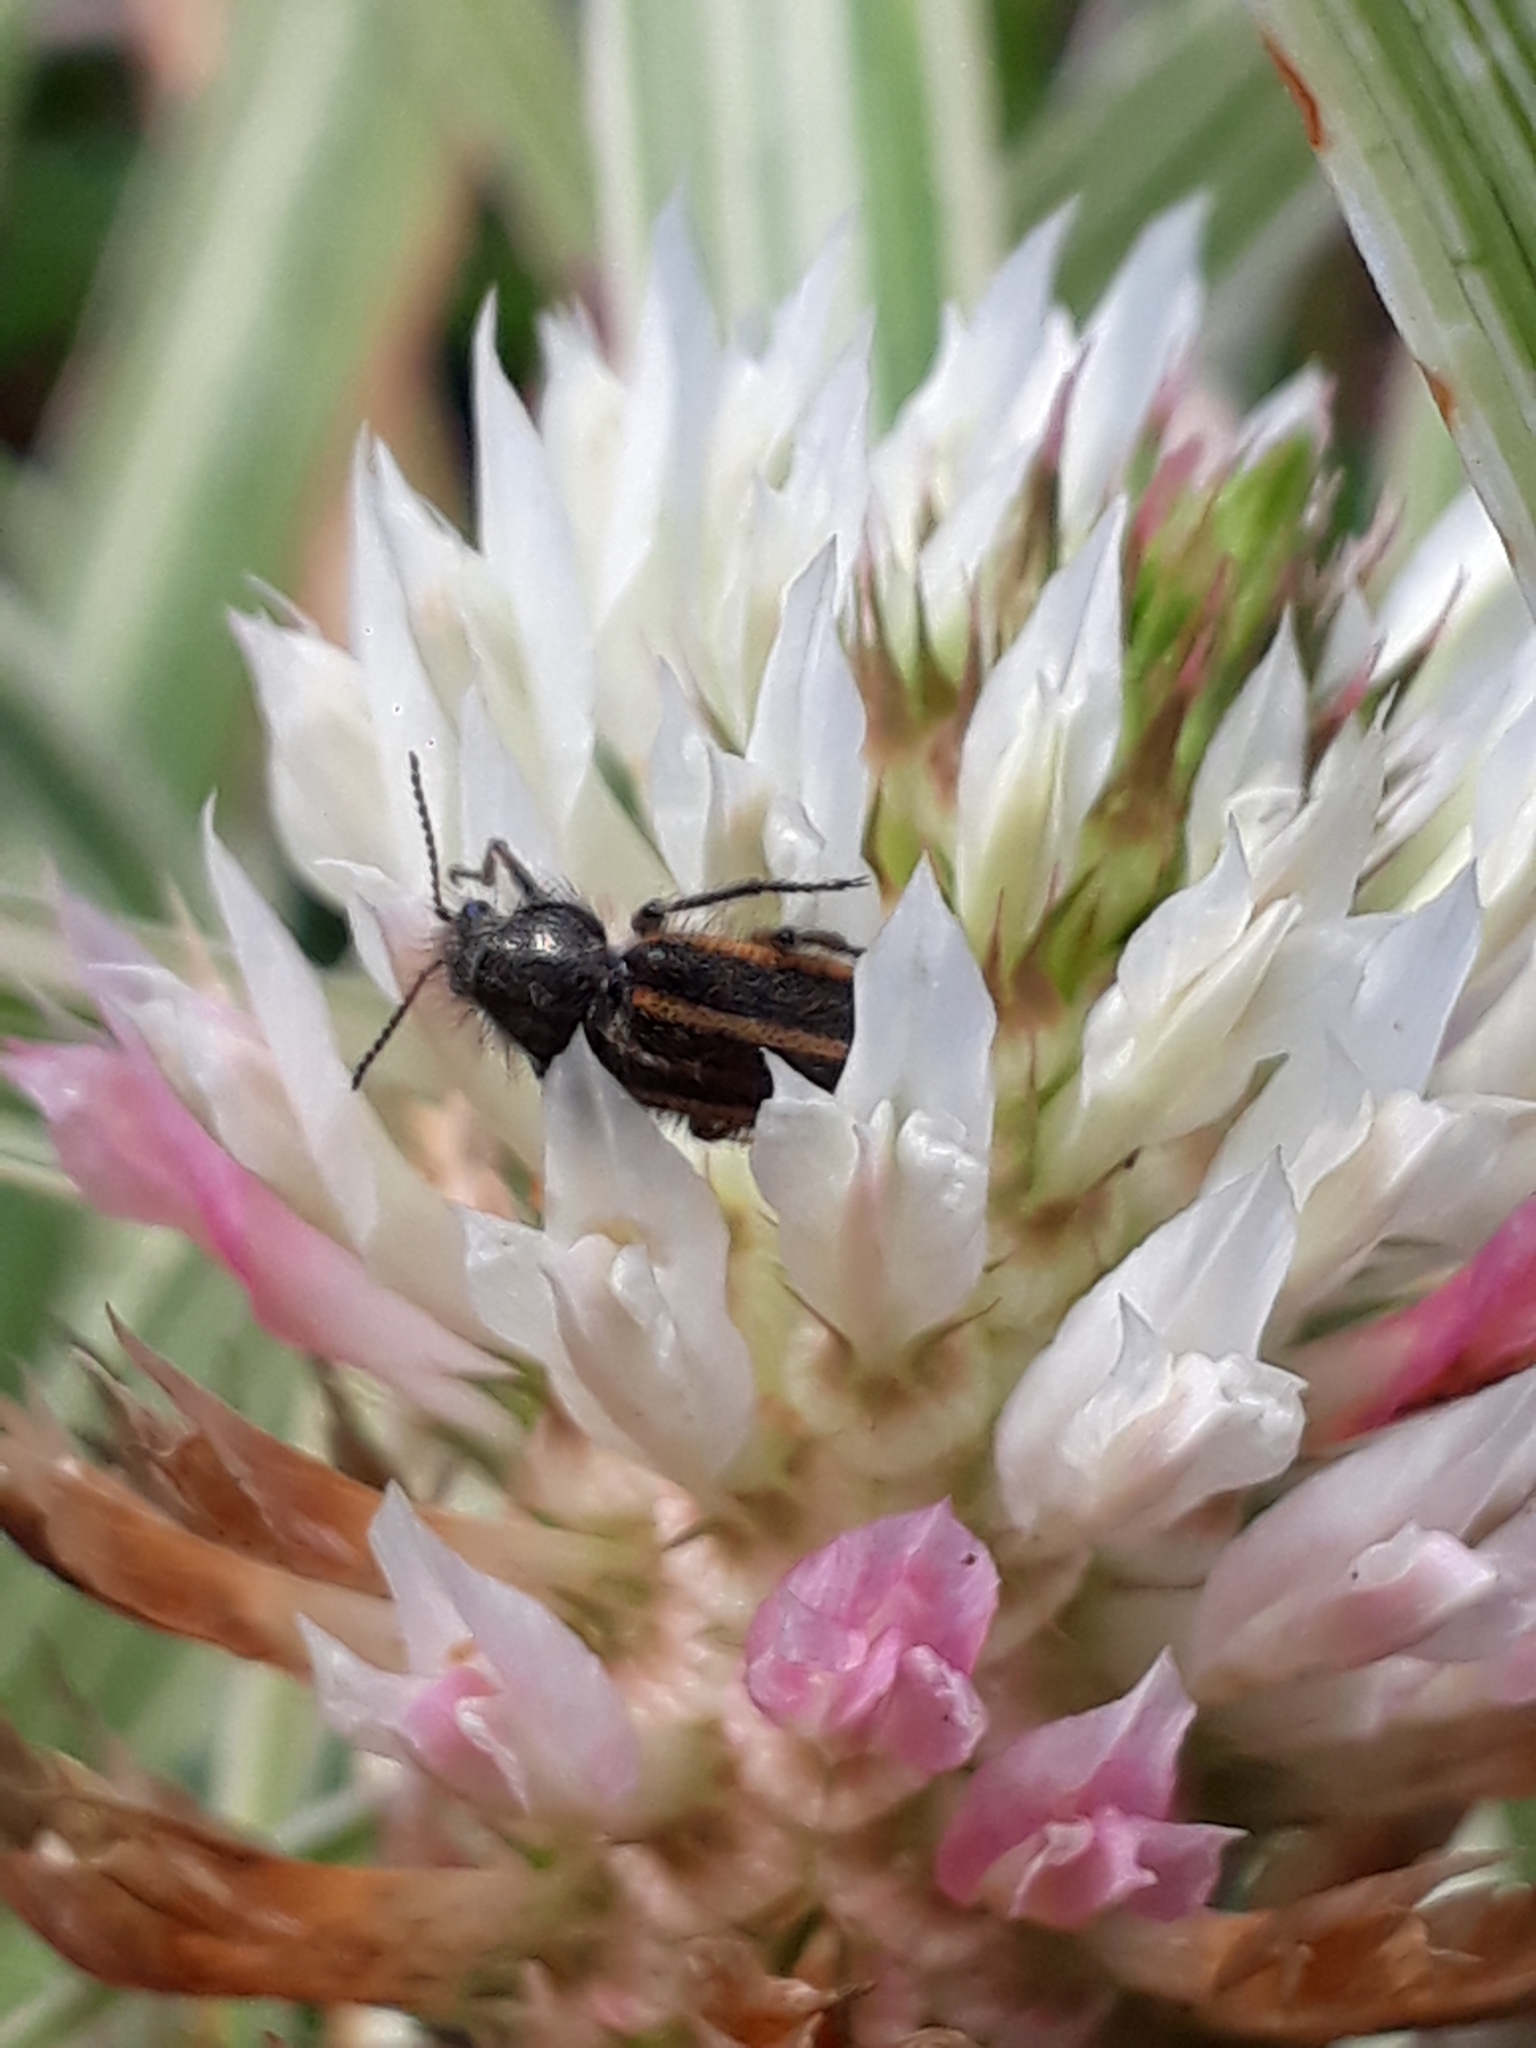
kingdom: Animalia
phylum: Arthropoda
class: Insecta
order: Coleoptera
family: Melyridae
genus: Astylus
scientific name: Astylus
